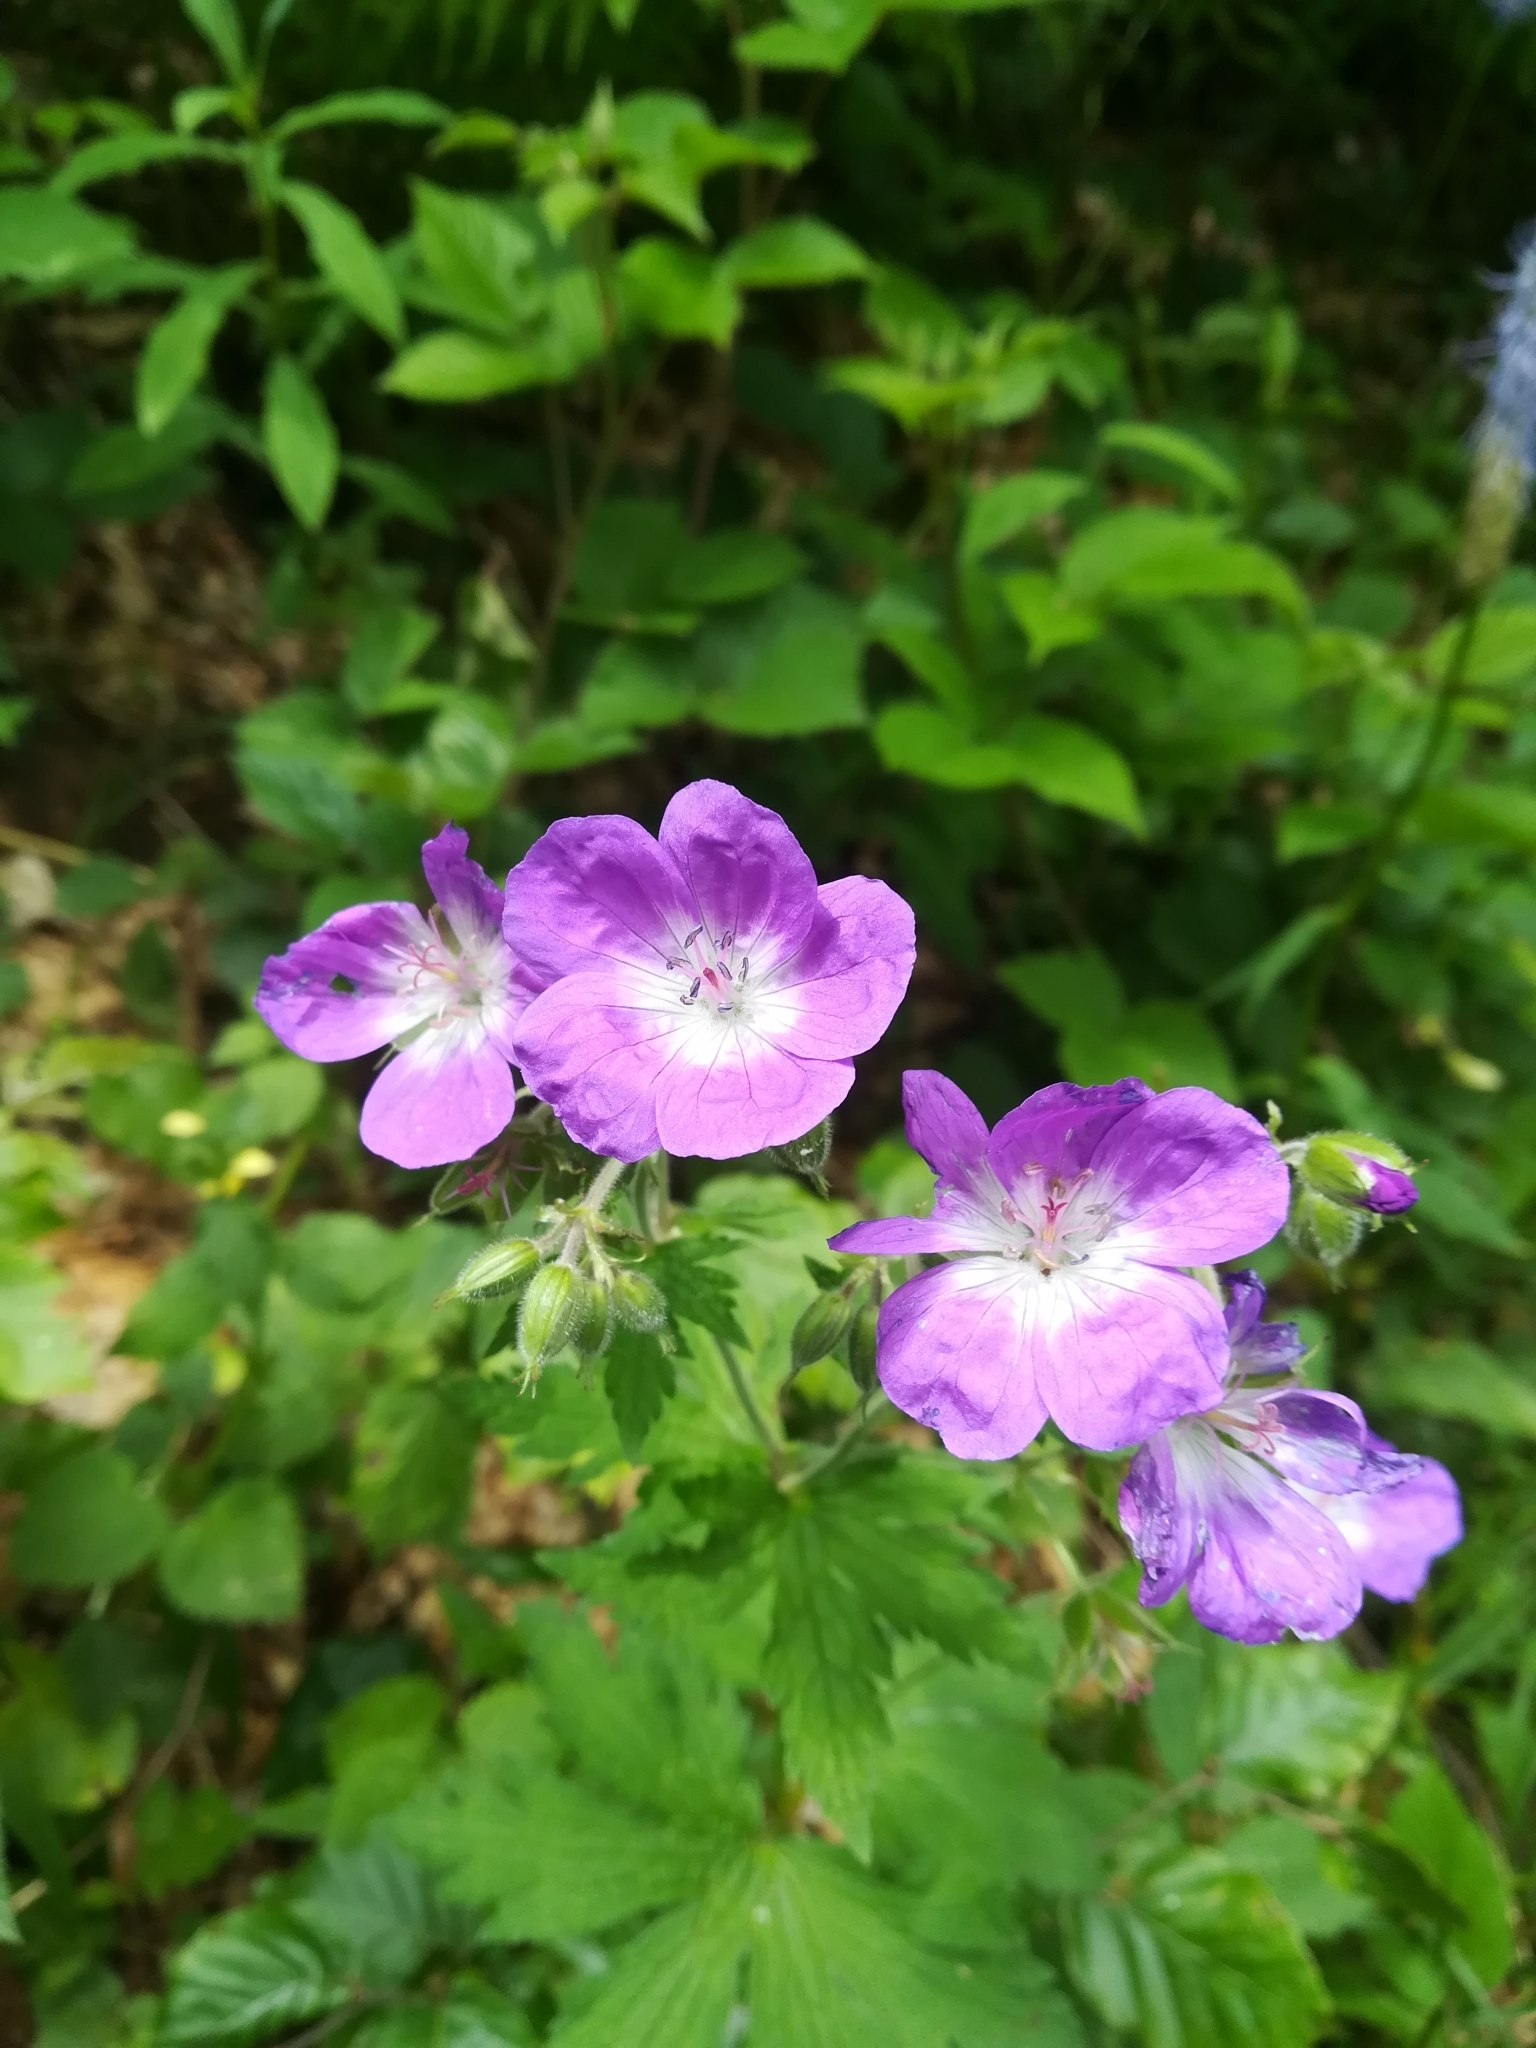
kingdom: Plantae
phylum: Tracheophyta
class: Magnoliopsida
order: Geraniales
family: Geraniaceae
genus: Geranium
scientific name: Geranium sylvaticum
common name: Wood crane's-bill
